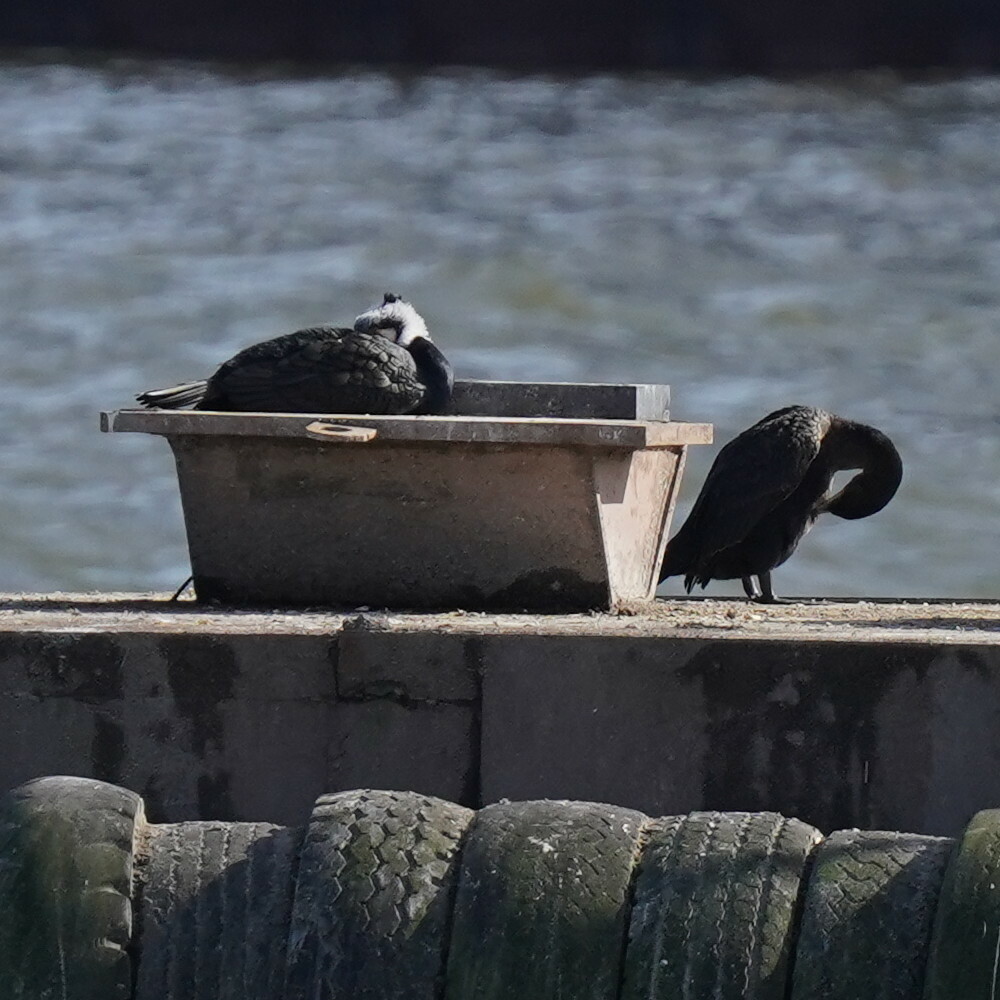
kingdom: Animalia
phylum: Chordata
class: Aves
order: Suliformes
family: Phalacrocoracidae
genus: Phalacrocorax
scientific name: Phalacrocorax carbo
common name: Great cormorant
